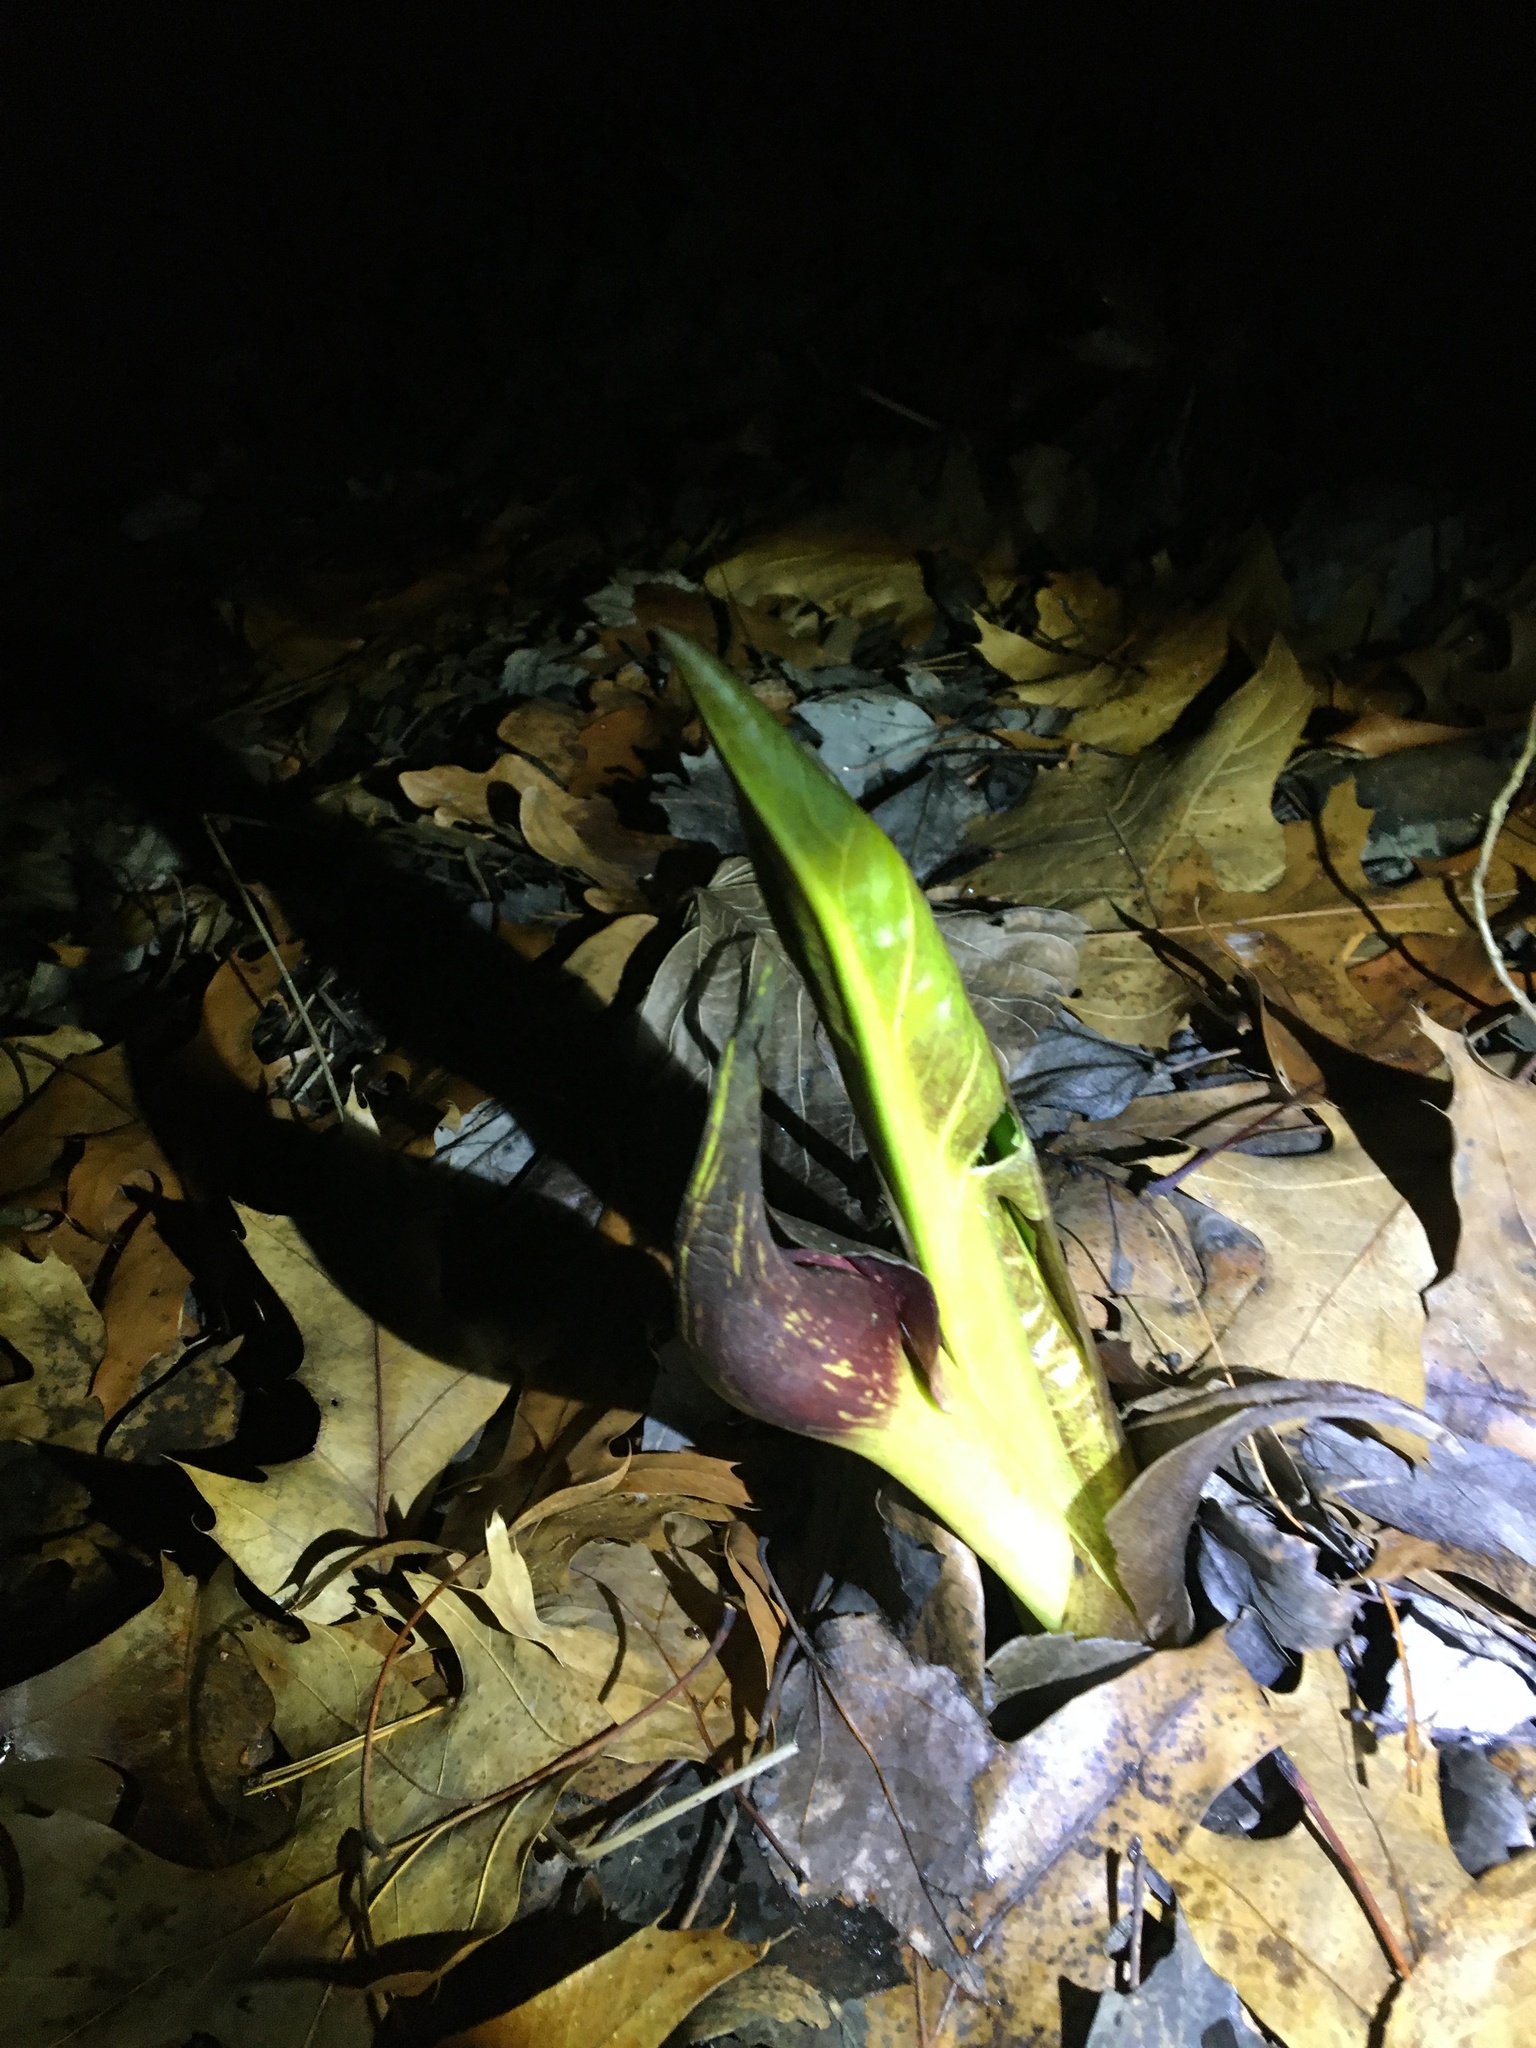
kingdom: Plantae
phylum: Tracheophyta
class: Liliopsida
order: Alismatales
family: Araceae
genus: Symplocarpus
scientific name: Symplocarpus foetidus
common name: Eastern skunk cabbage
